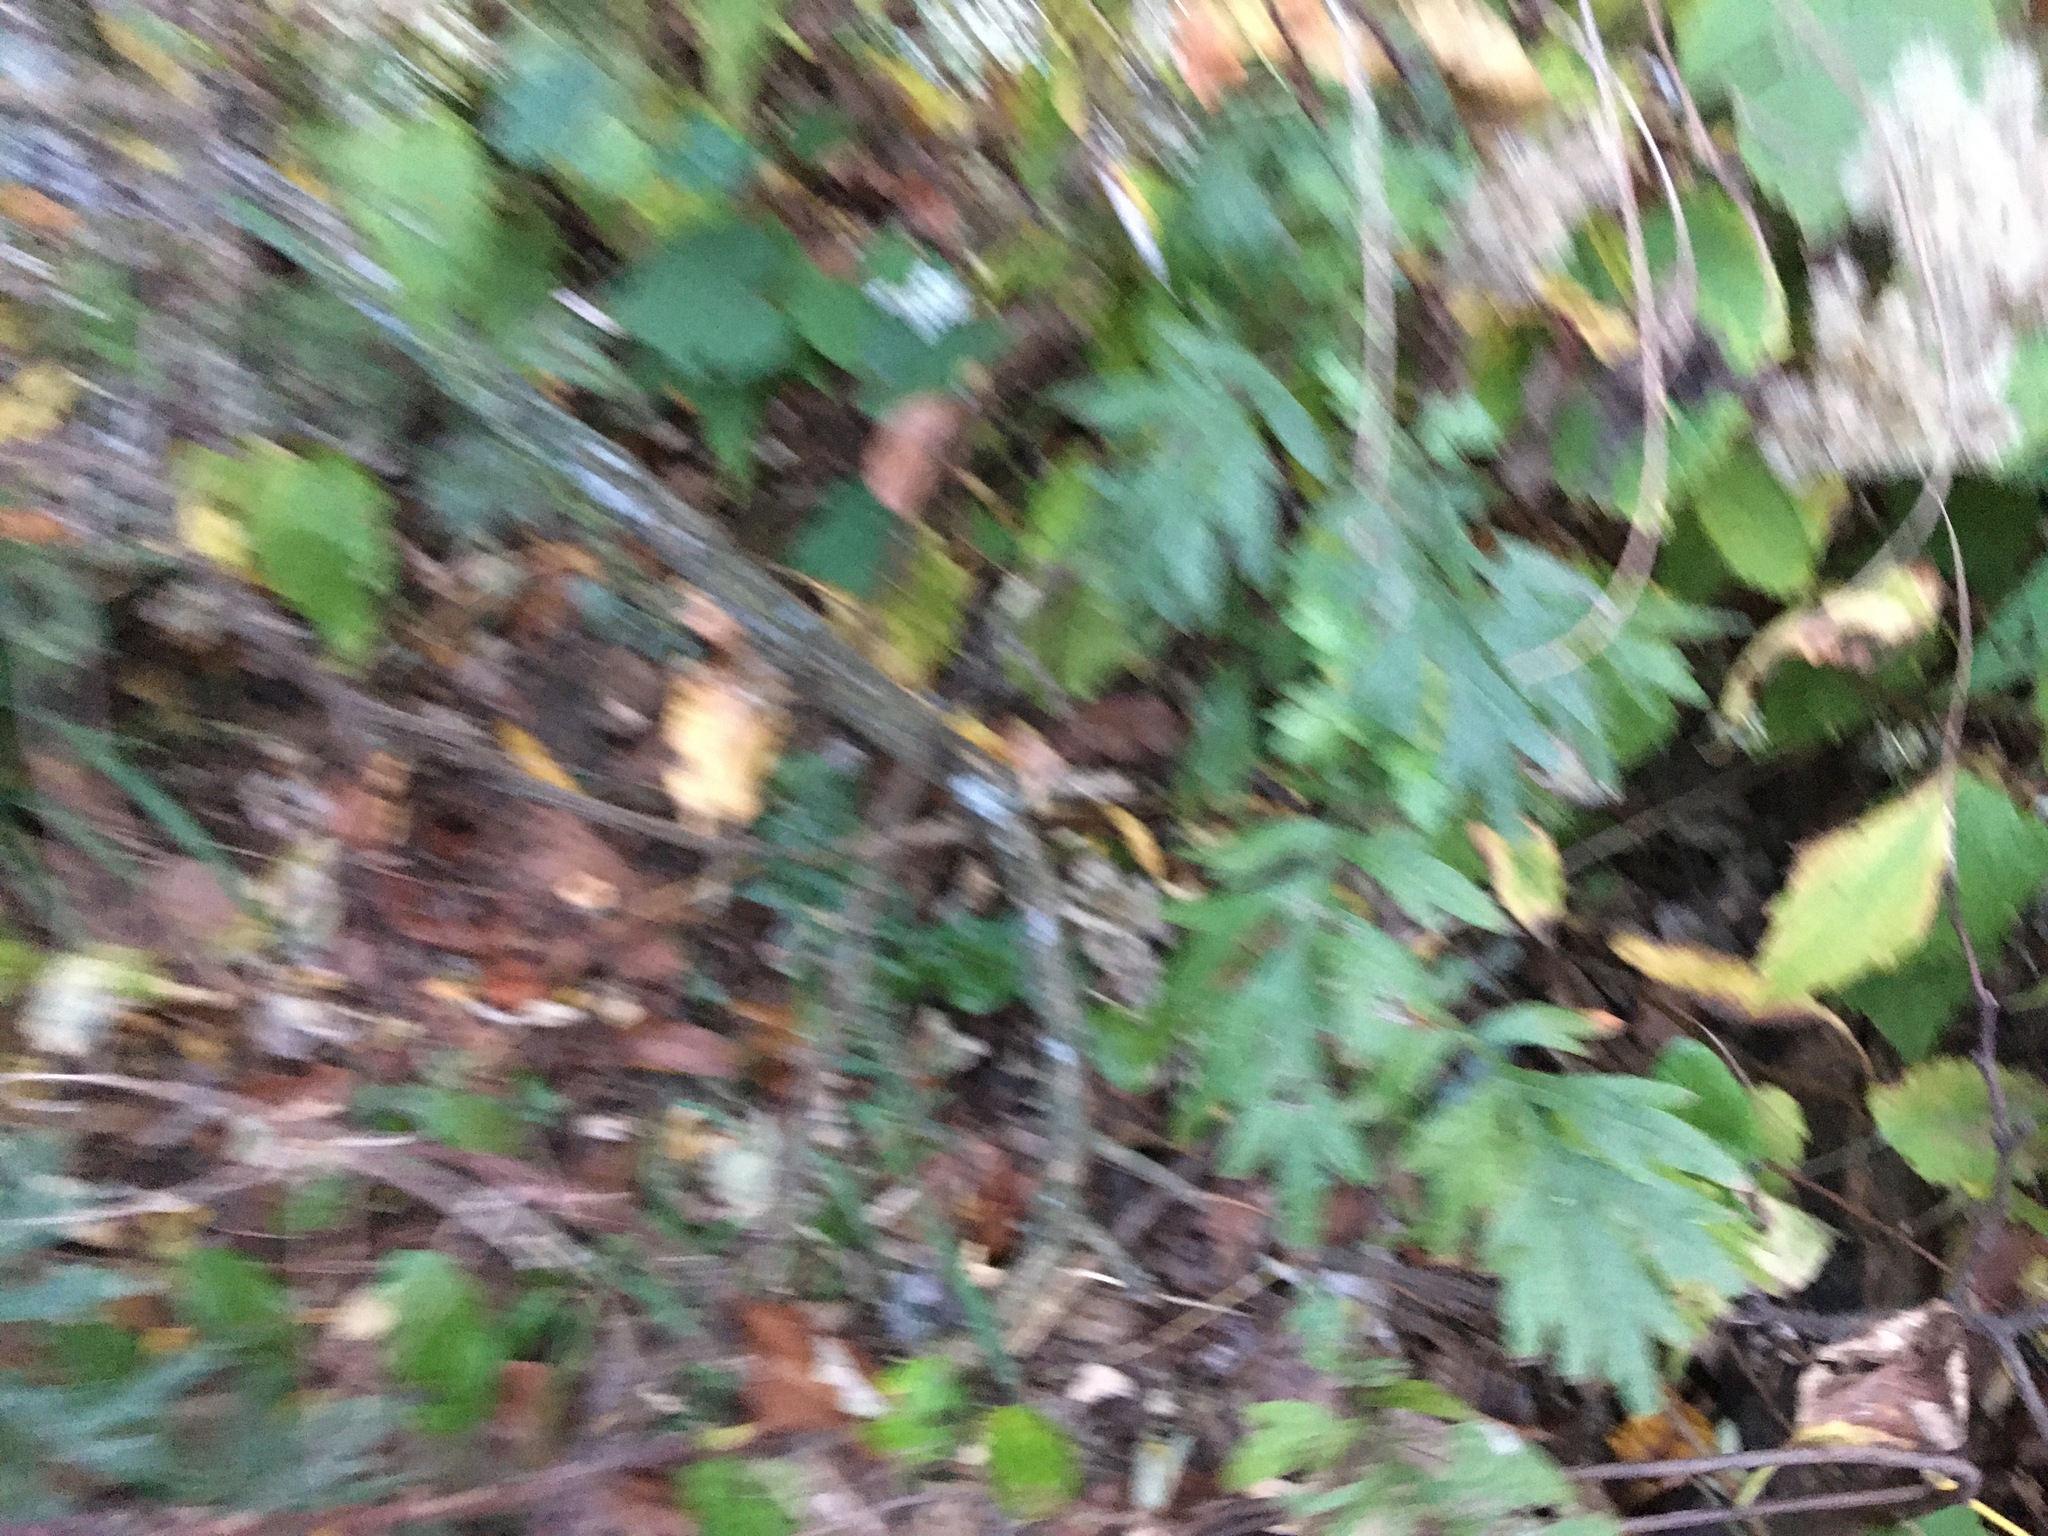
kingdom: Plantae
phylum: Tracheophyta
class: Magnoliopsida
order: Asterales
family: Asteraceae
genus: Artemisia
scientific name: Artemisia vulgaris
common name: Mugwort
